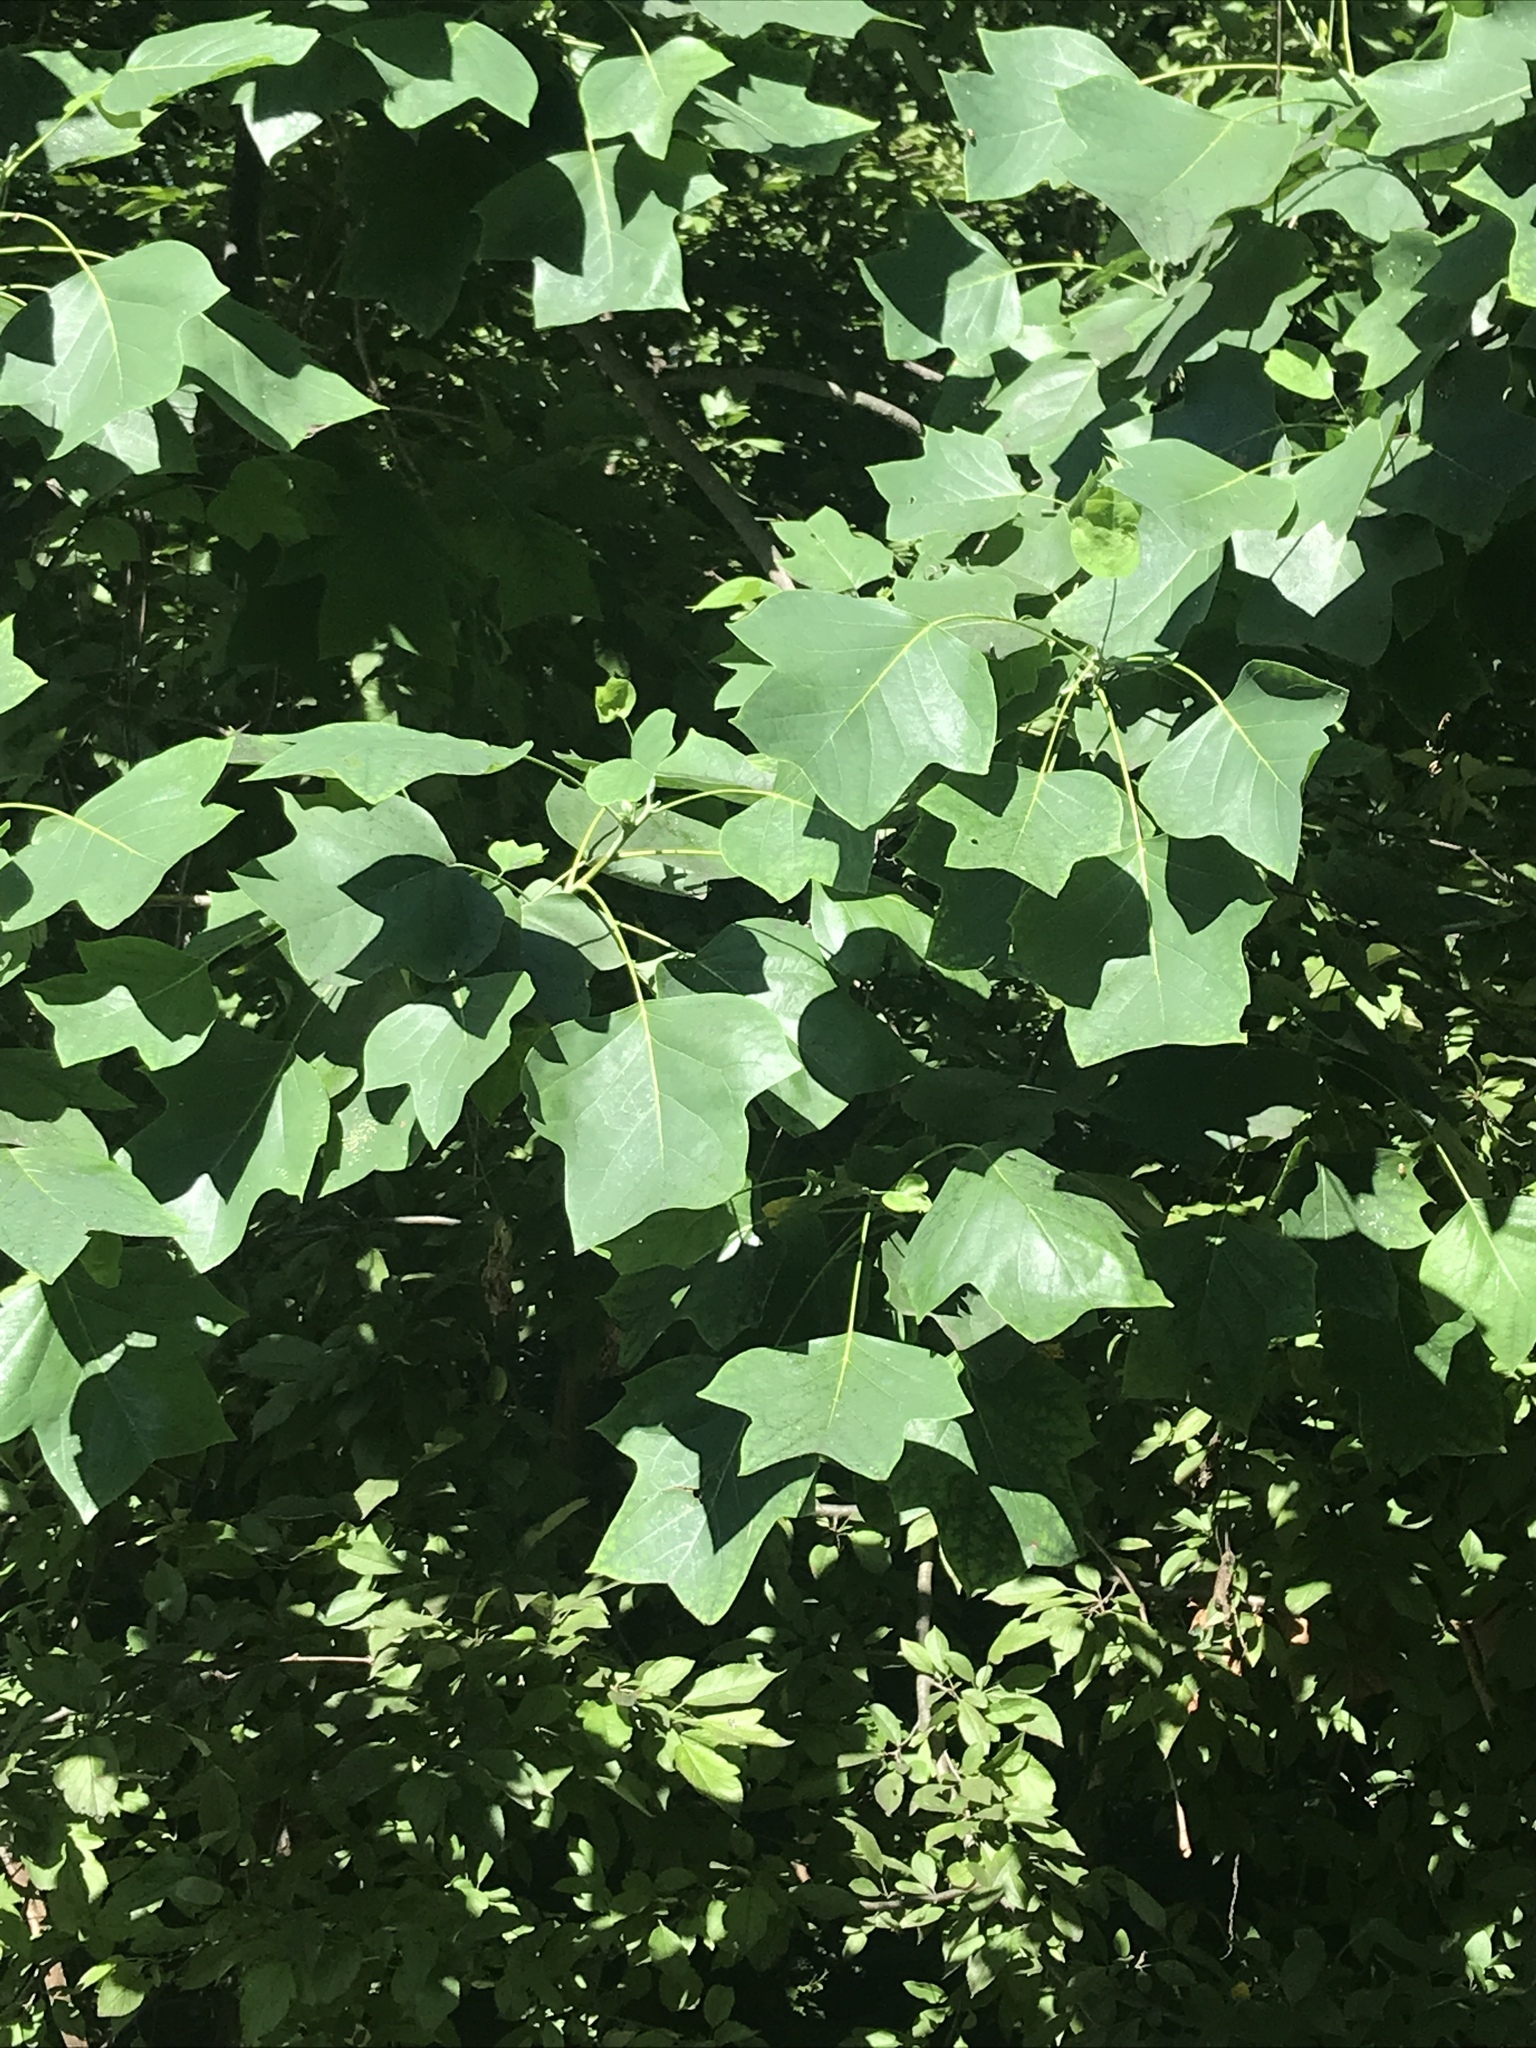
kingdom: Plantae
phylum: Tracheophyta
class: Magnoliopsida
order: Magnoliales
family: Magnoliaceae
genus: Liriodendron
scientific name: Liriodendron tulipifera
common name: Tulip tree
